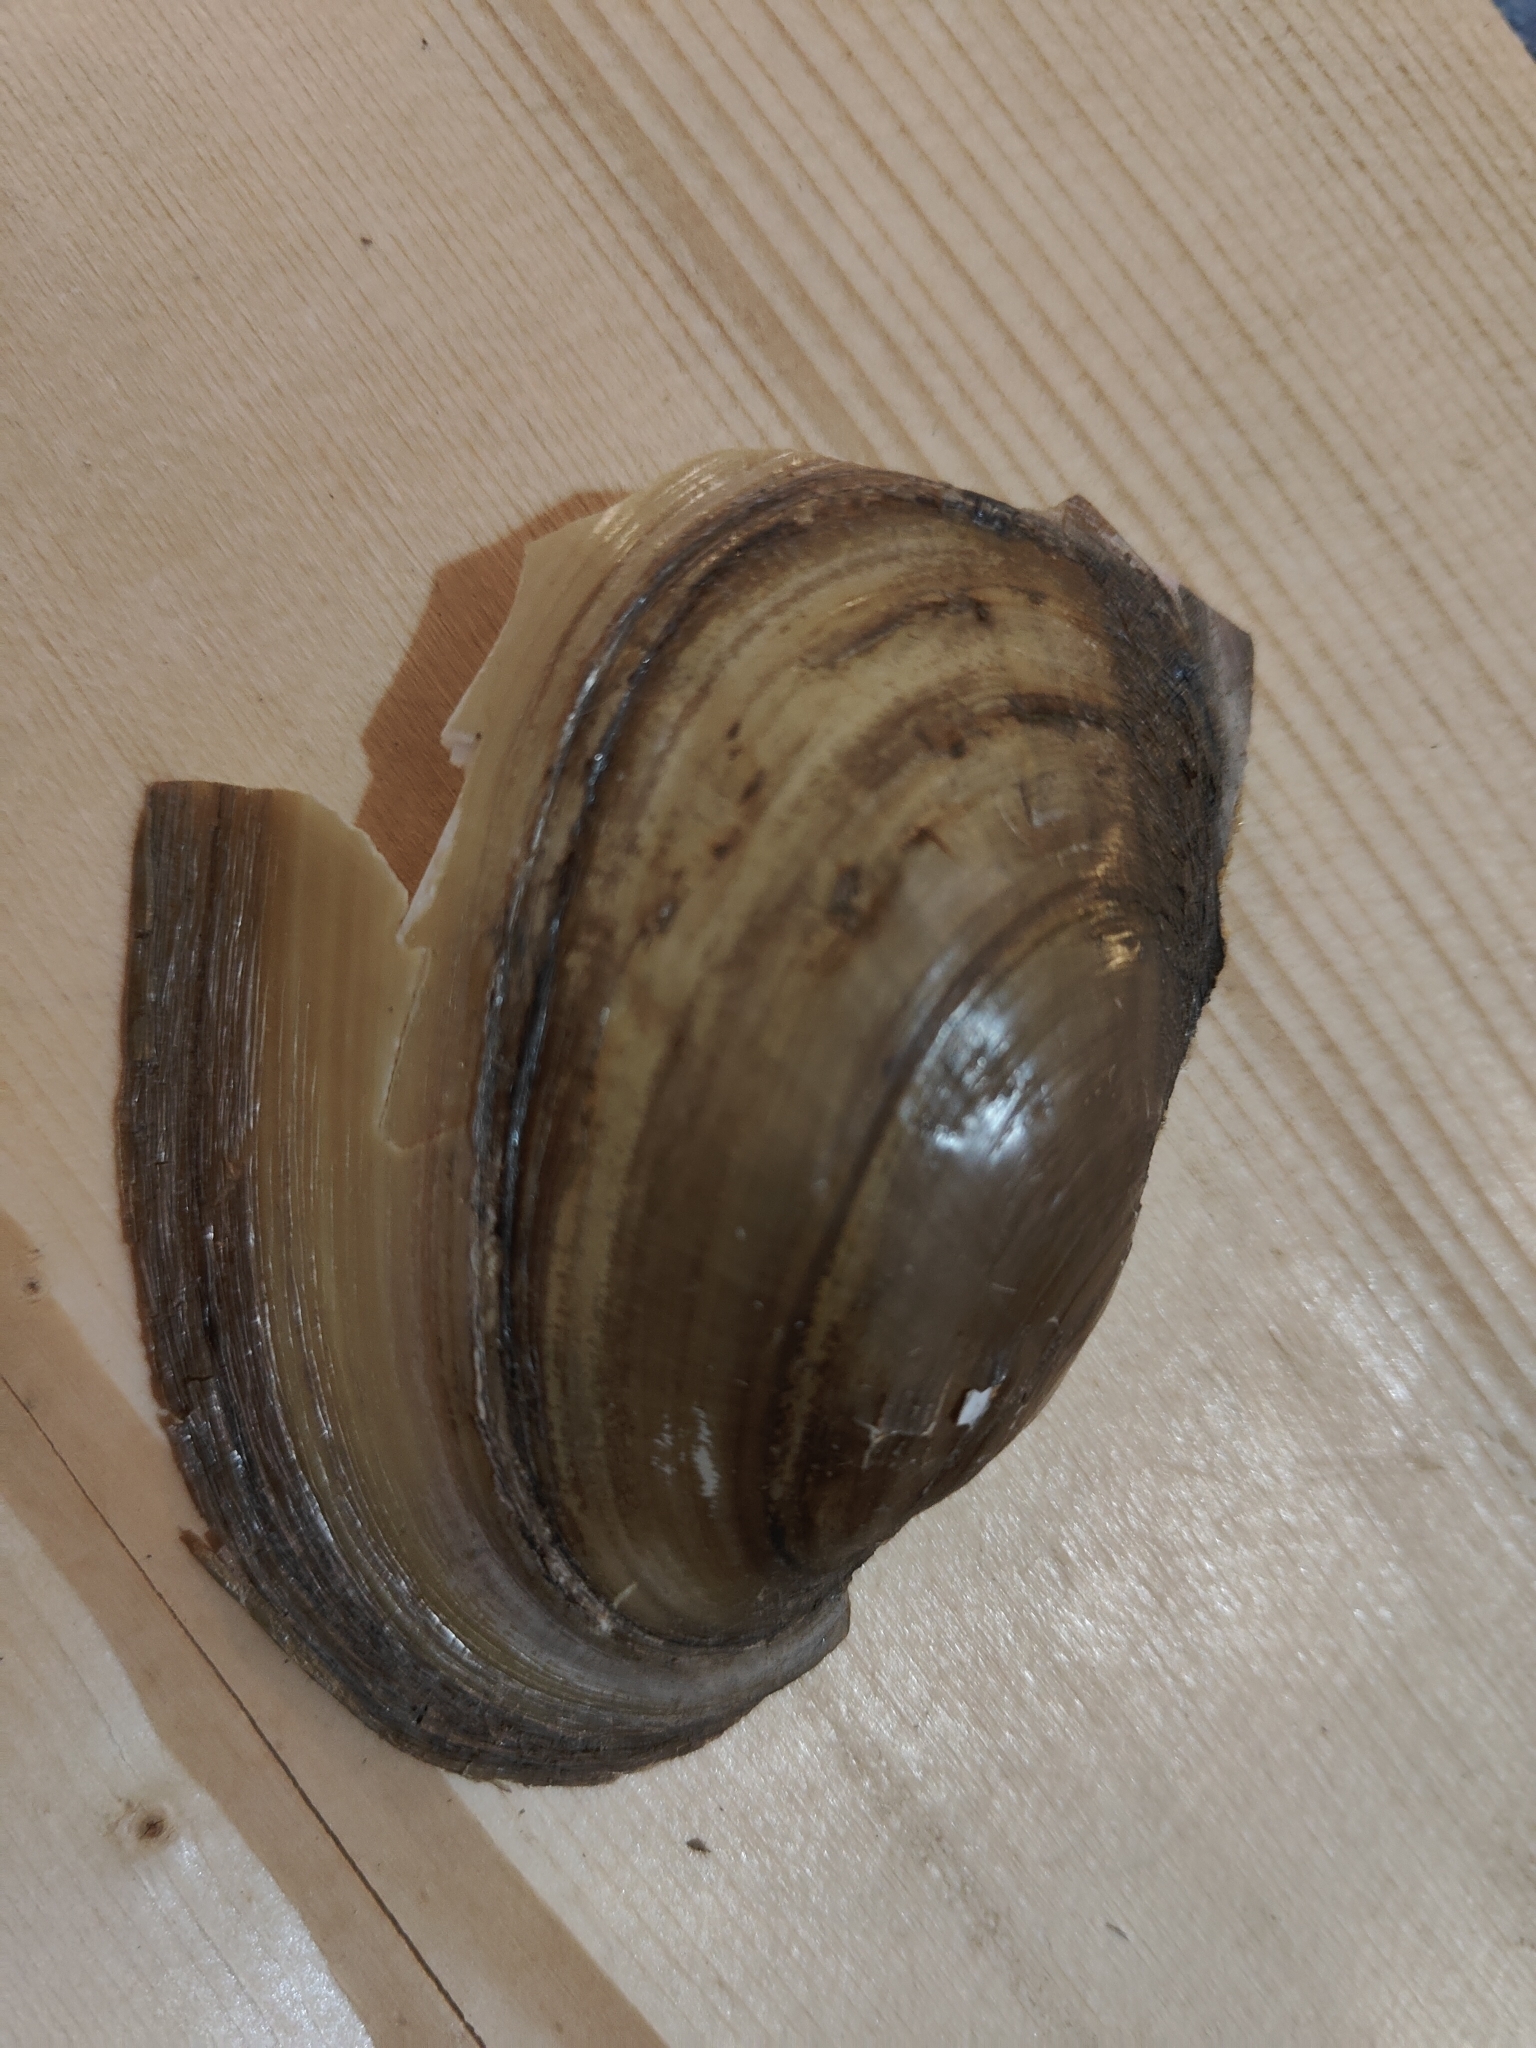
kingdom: Animalia
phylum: Mollusca
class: Bivalvia
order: Unionida
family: Unionidae
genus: Potamilus
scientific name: Potamilus fragilis
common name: Fragile papershell
